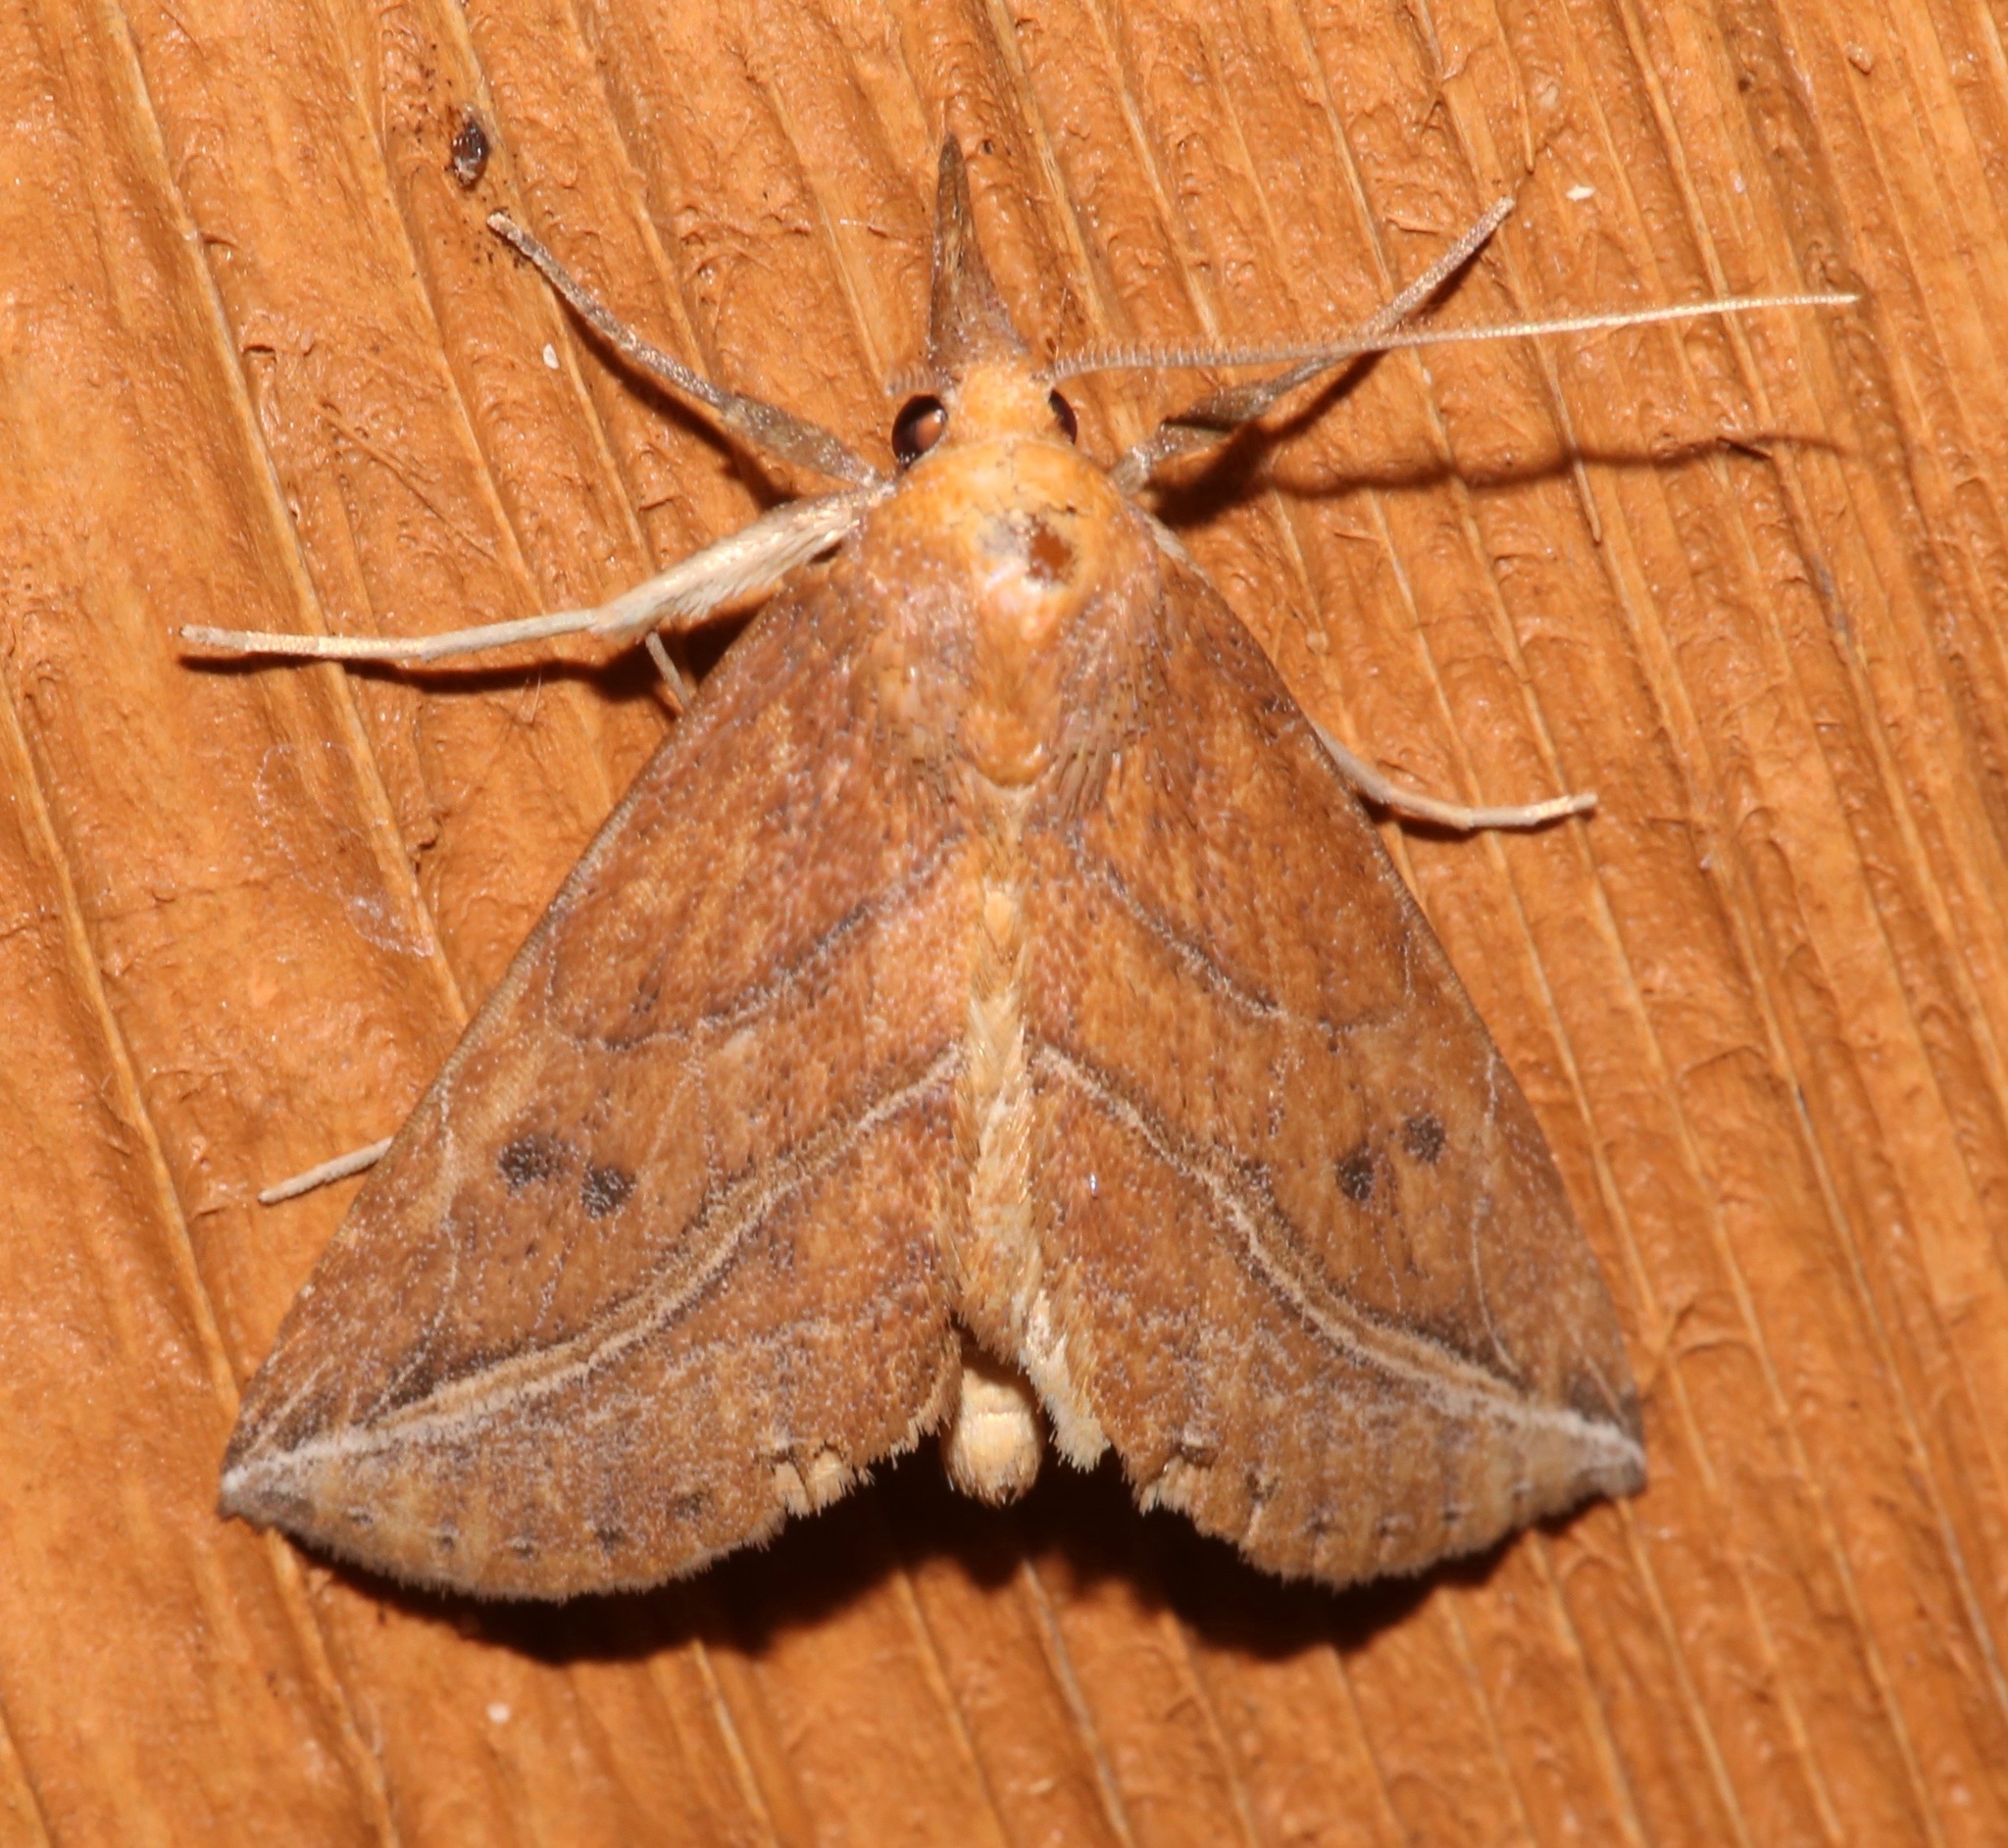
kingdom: Animalia
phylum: Arthropoda
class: Insecta
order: Lepidoptera
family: Erebidae
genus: Phyprosopus
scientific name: Phyprosopus callitrichoides
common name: Curved-lined owlet
